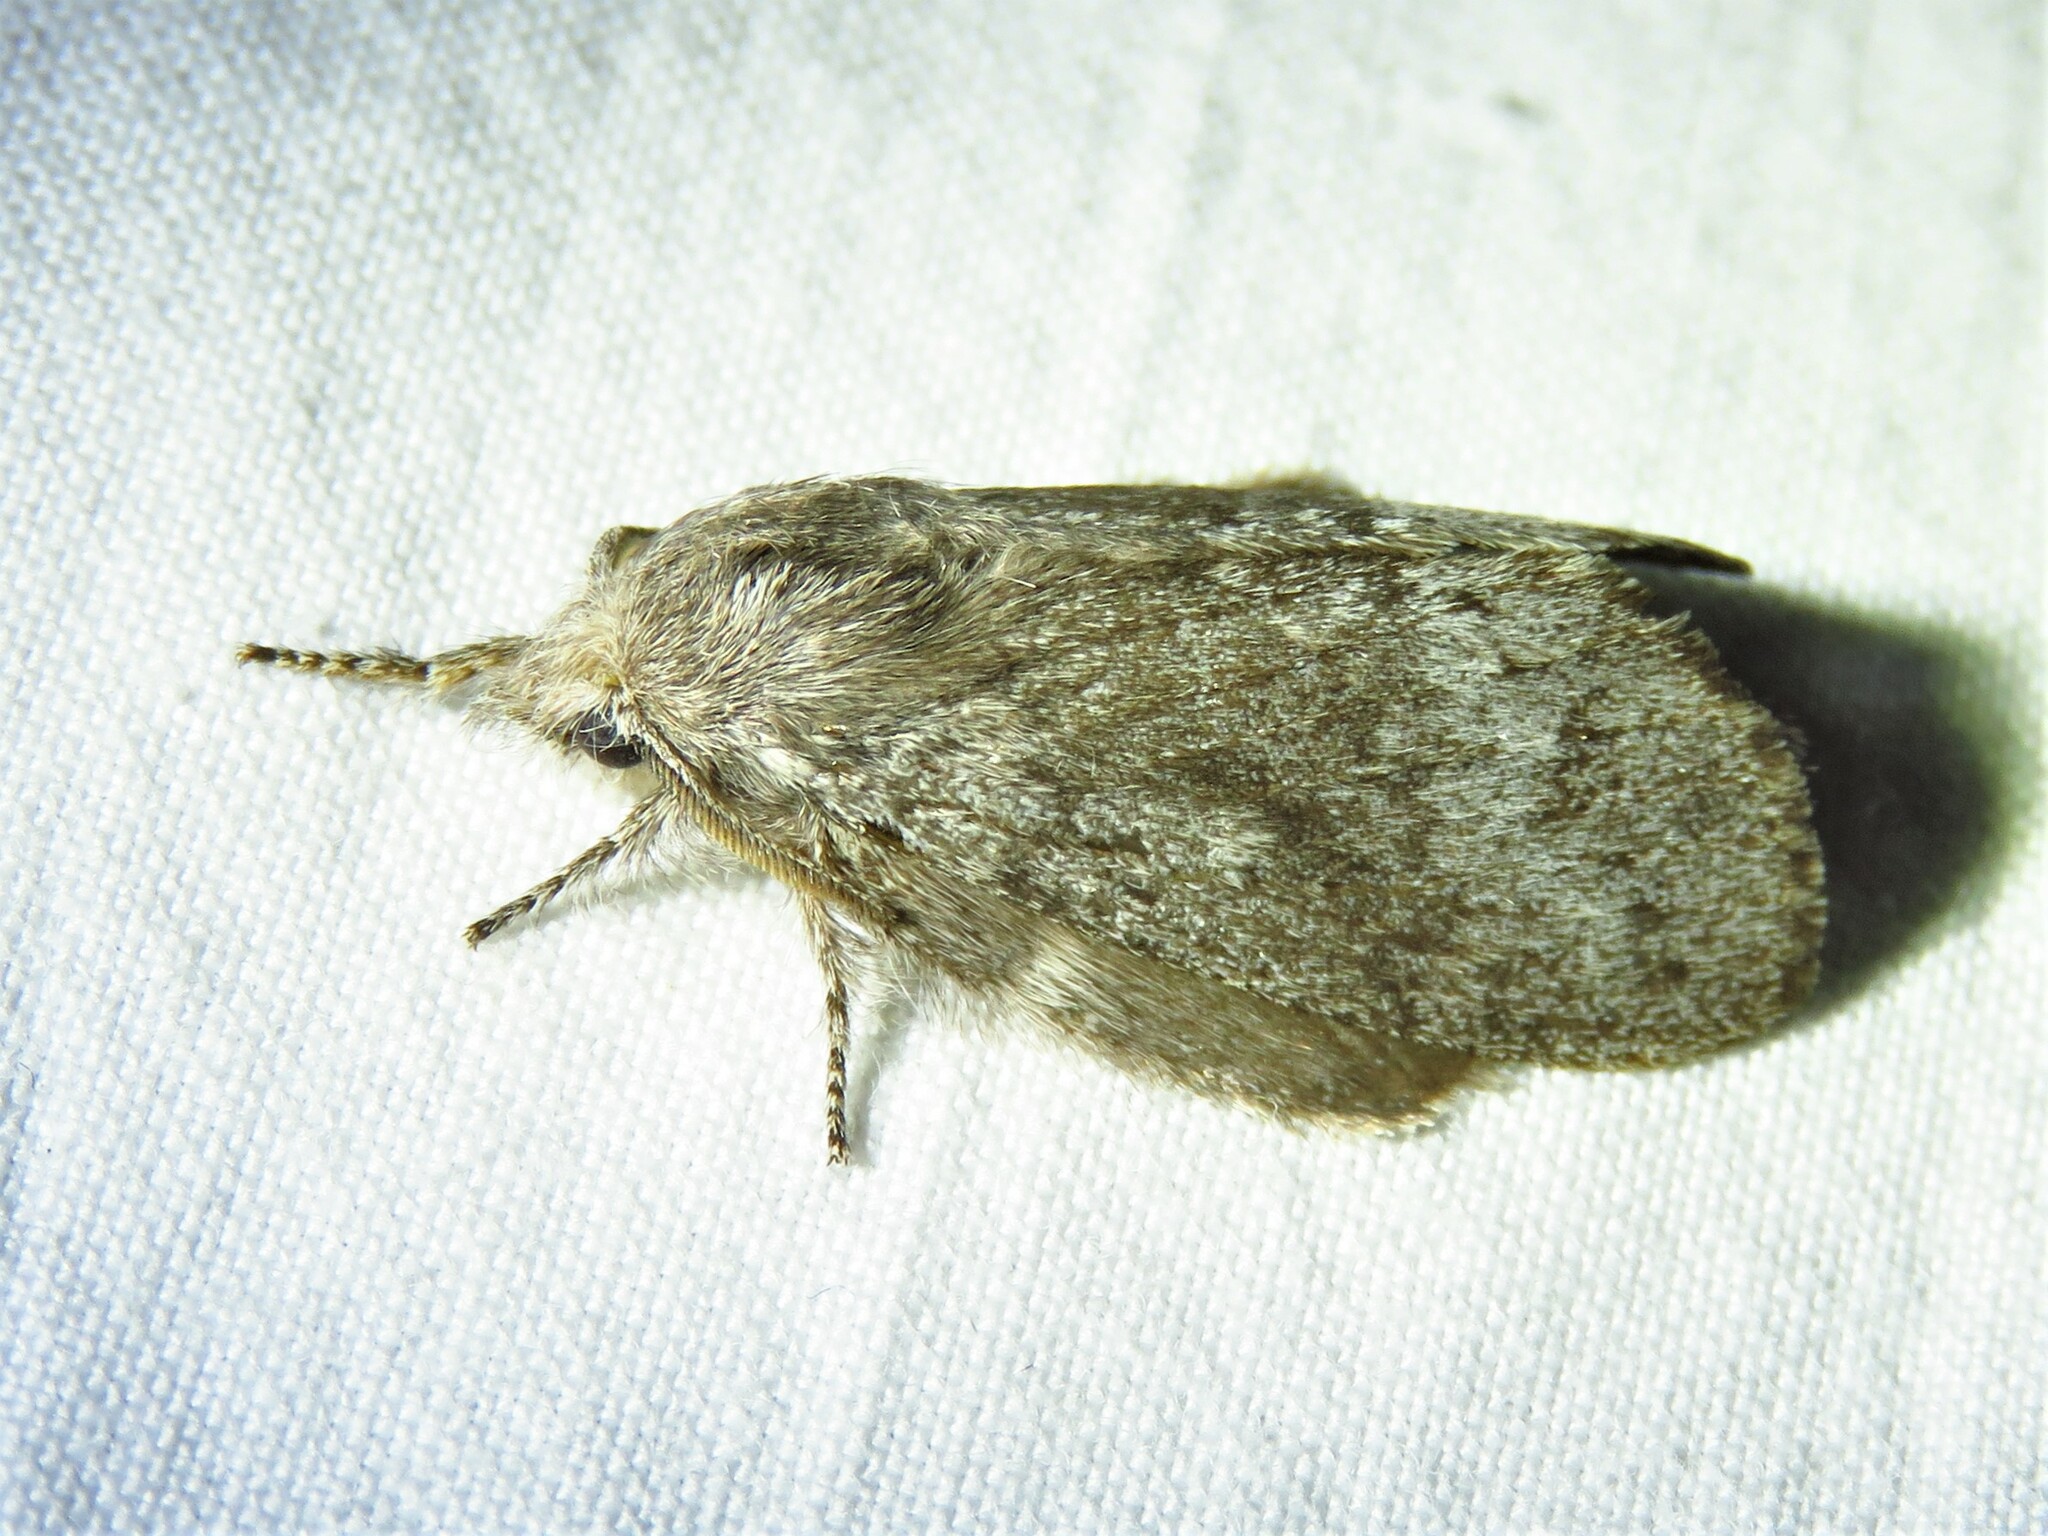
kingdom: Animalia
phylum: Arthropoda
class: Insecta
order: Lepidoptera
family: Lasiocampidae
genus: Heteropacha
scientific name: Heteropacha rileyana
